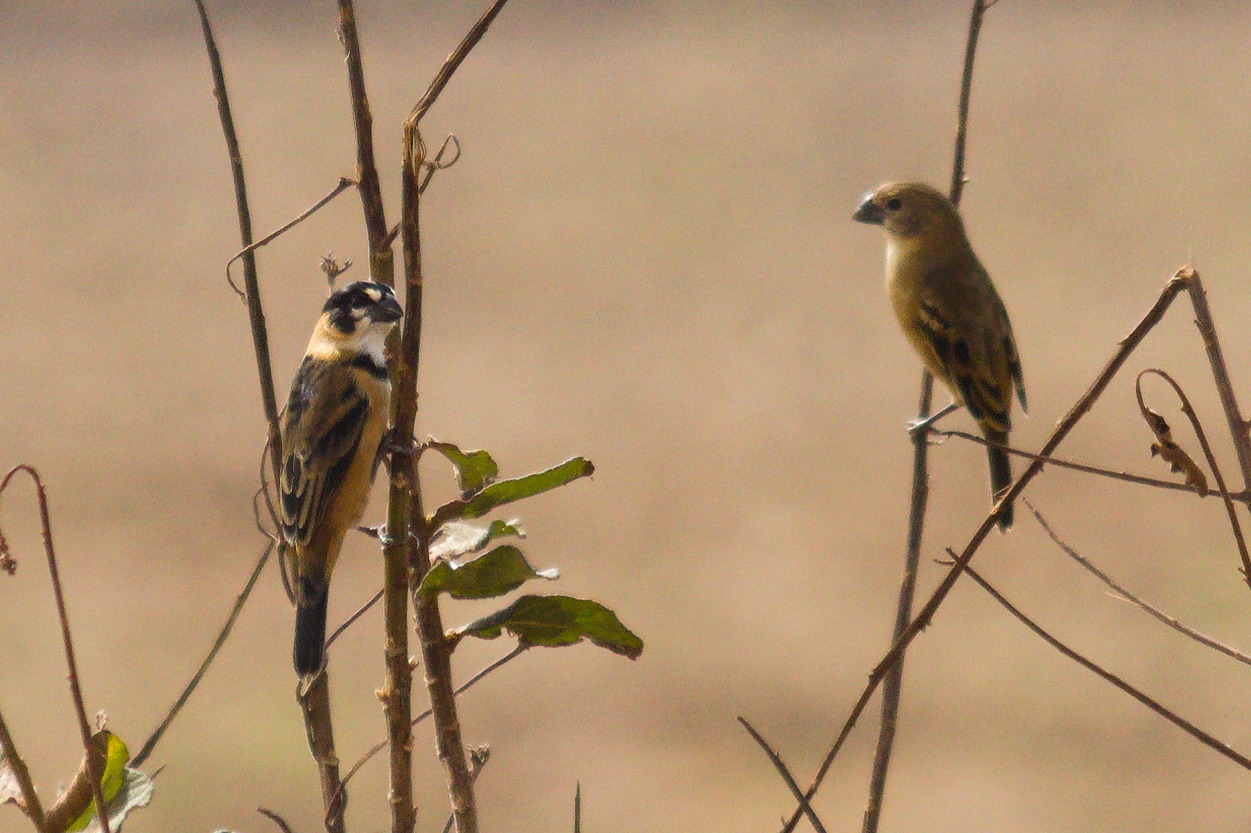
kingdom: Animalia
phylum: Chordata
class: Aves
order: Passeriformes
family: Thraupidae
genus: Sporophila
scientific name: Sporophila collaris
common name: Rusty-collared seedeater
